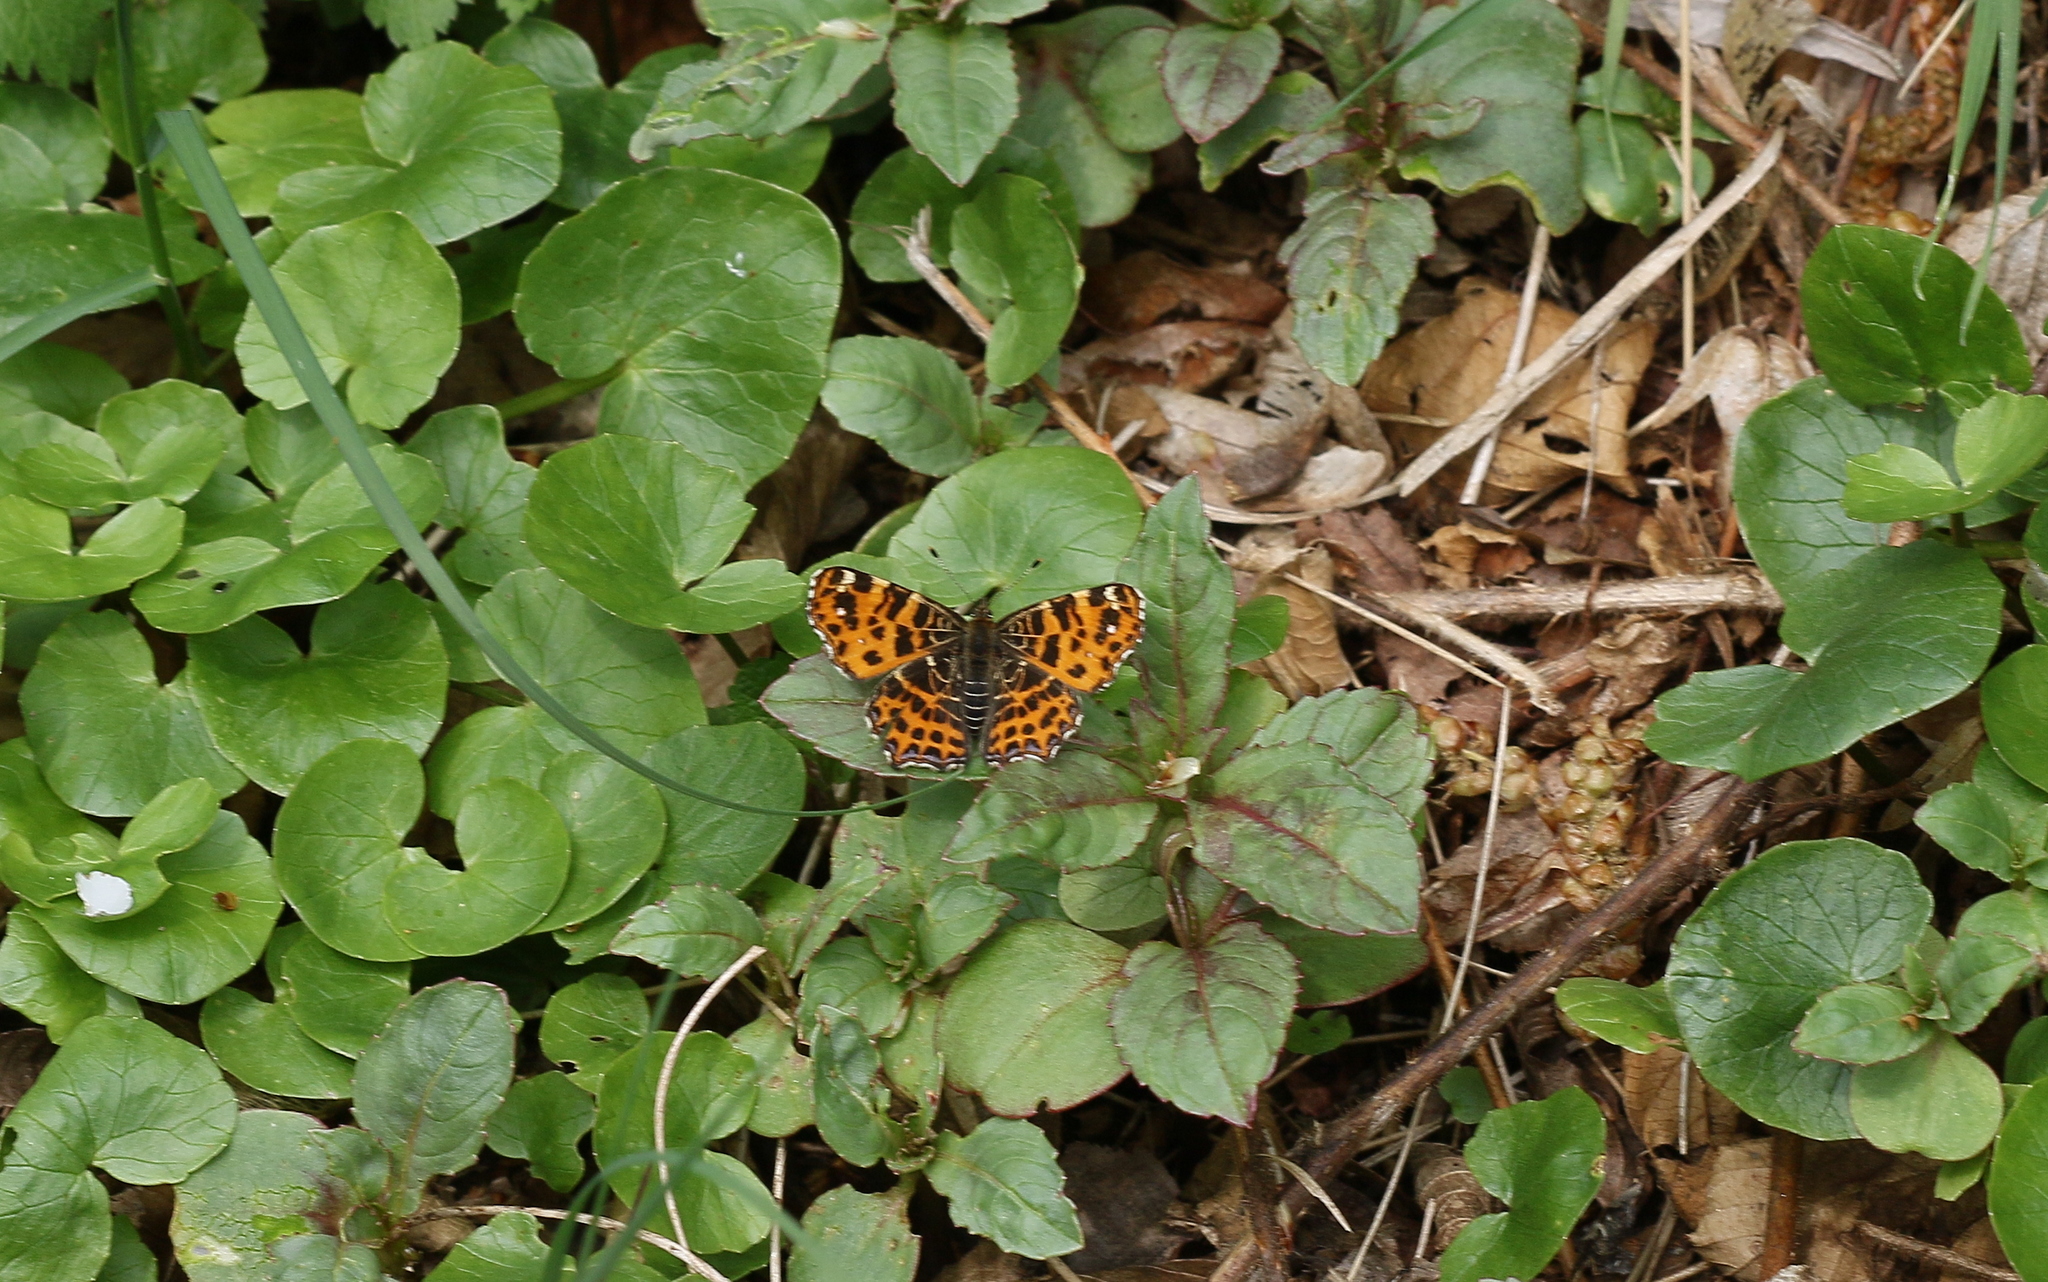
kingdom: Animalia
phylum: Arthropoda
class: Insecta
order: Lepidoptera
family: Nymphalidae
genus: Araschnia
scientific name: Araschnia levana
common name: Map butterfly
